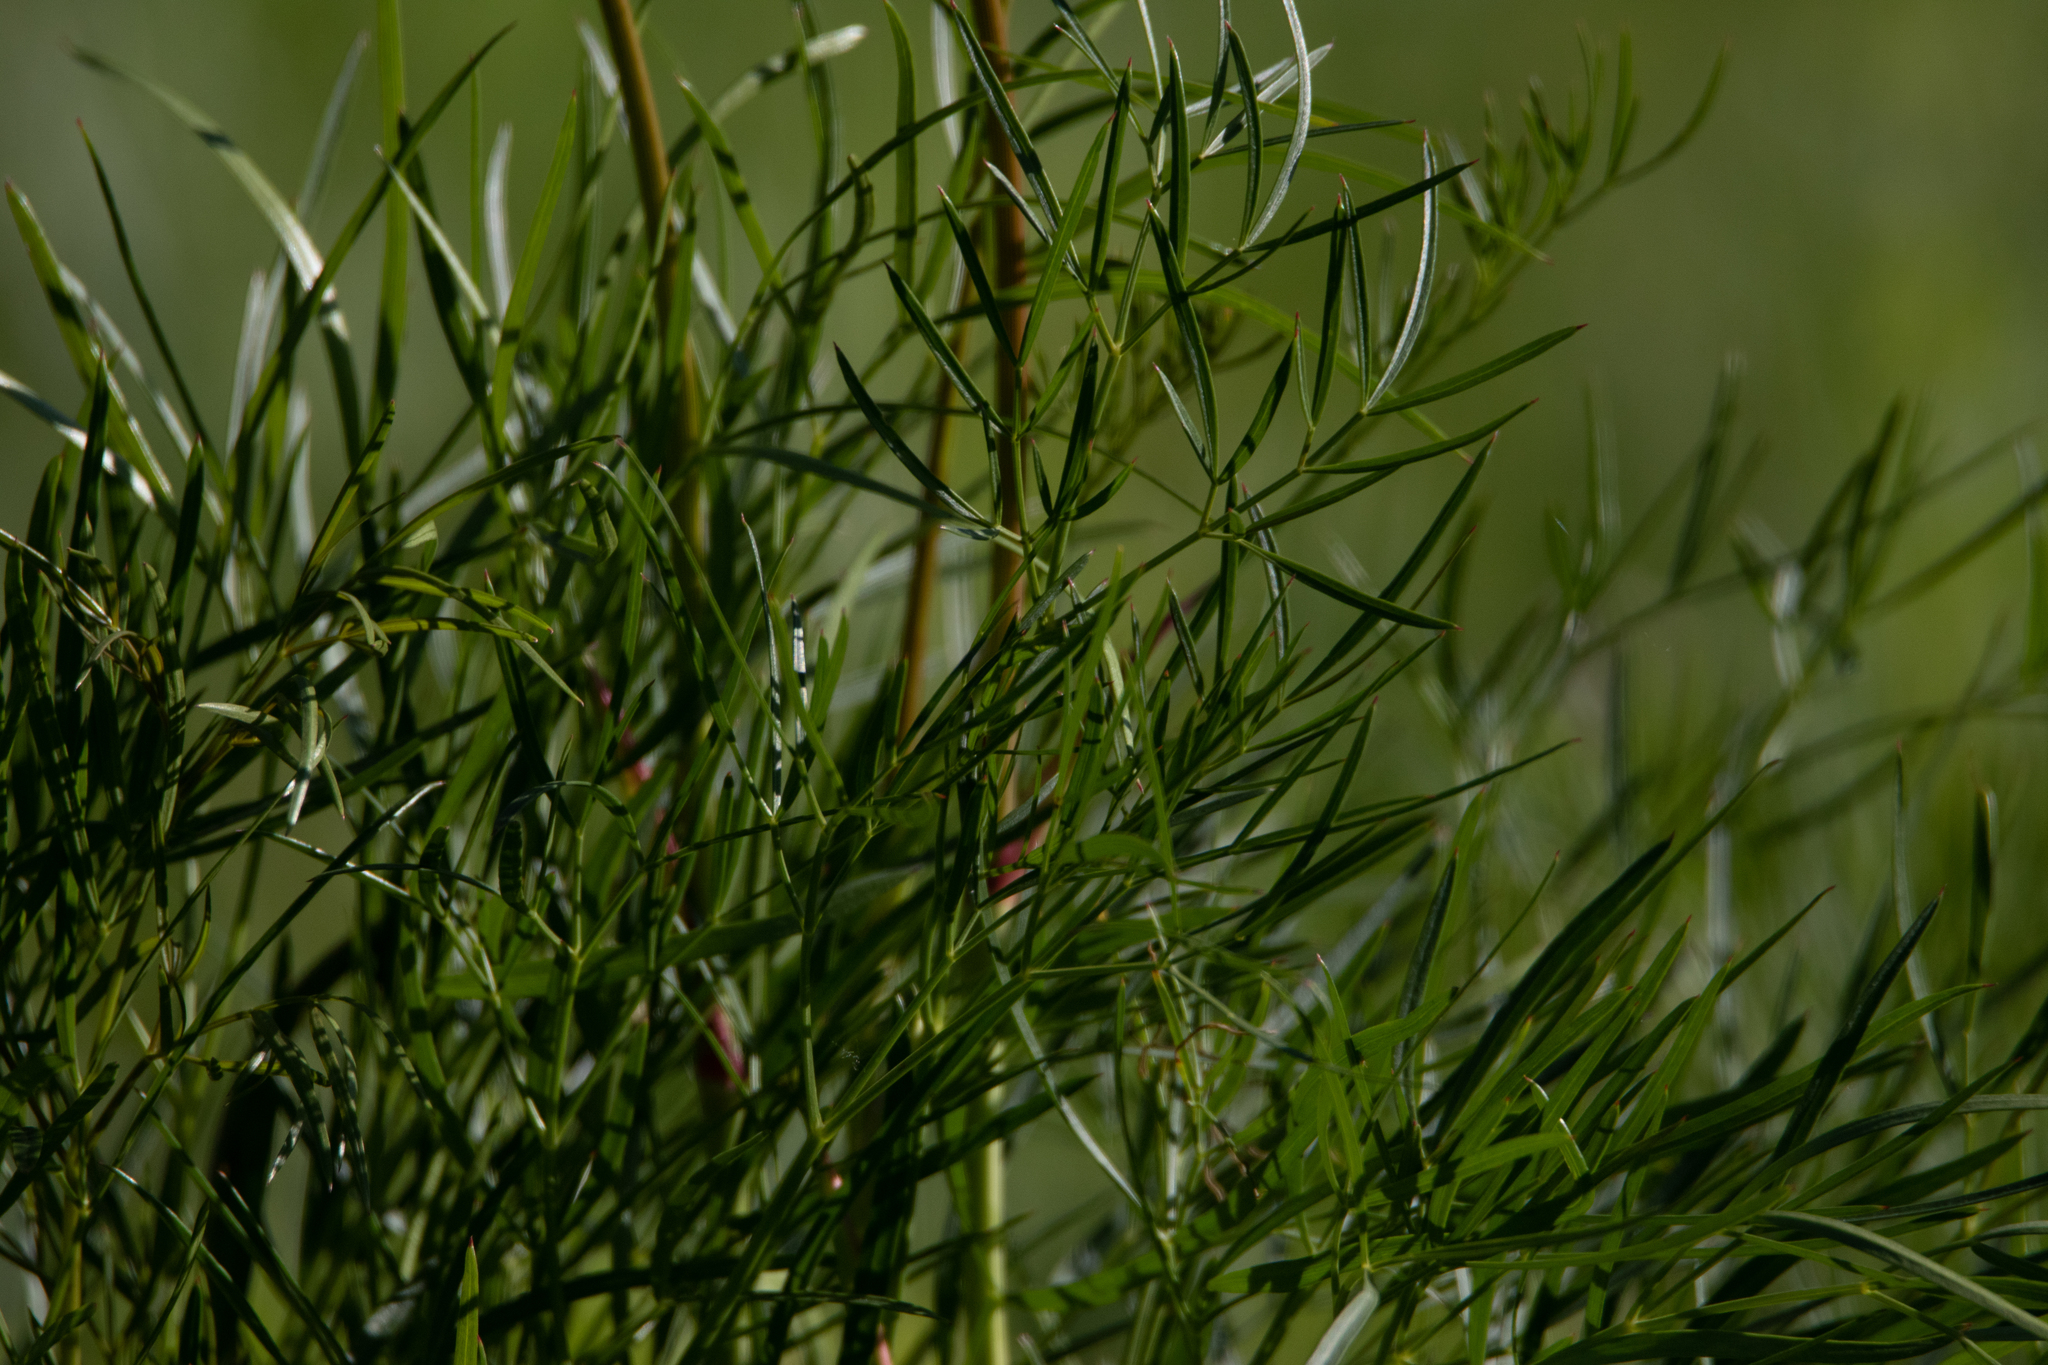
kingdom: Plantae
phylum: Tracheophyta
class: Magnoliopsida
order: Apiales
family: Apiaceae
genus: Peucedanum
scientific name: Peucedanum morisonii
